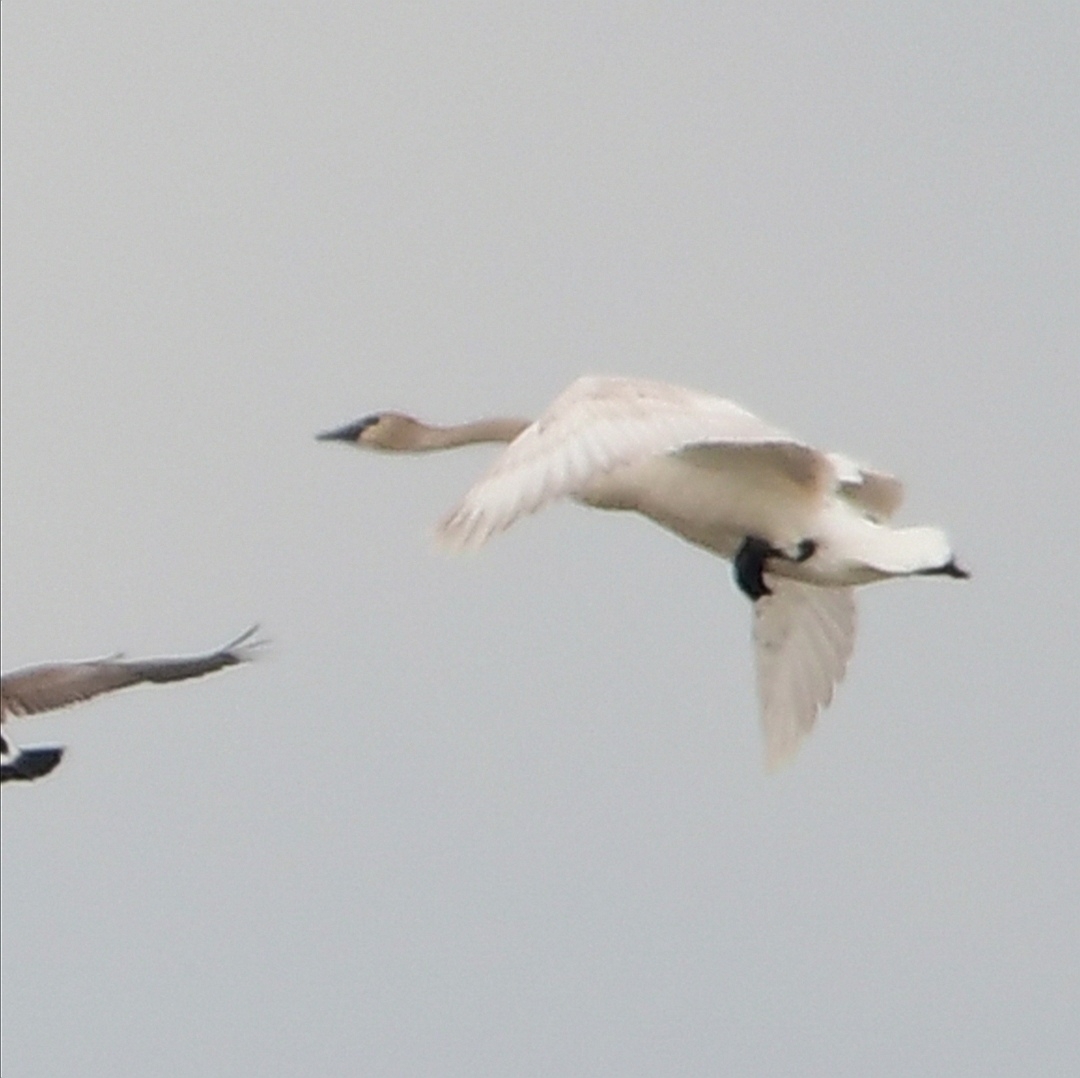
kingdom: Animalia
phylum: Chordata
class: Aves
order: Anseriformes
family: Anatidae
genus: Cygnus
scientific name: Cygnus buccinator
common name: Trumpeter swan
